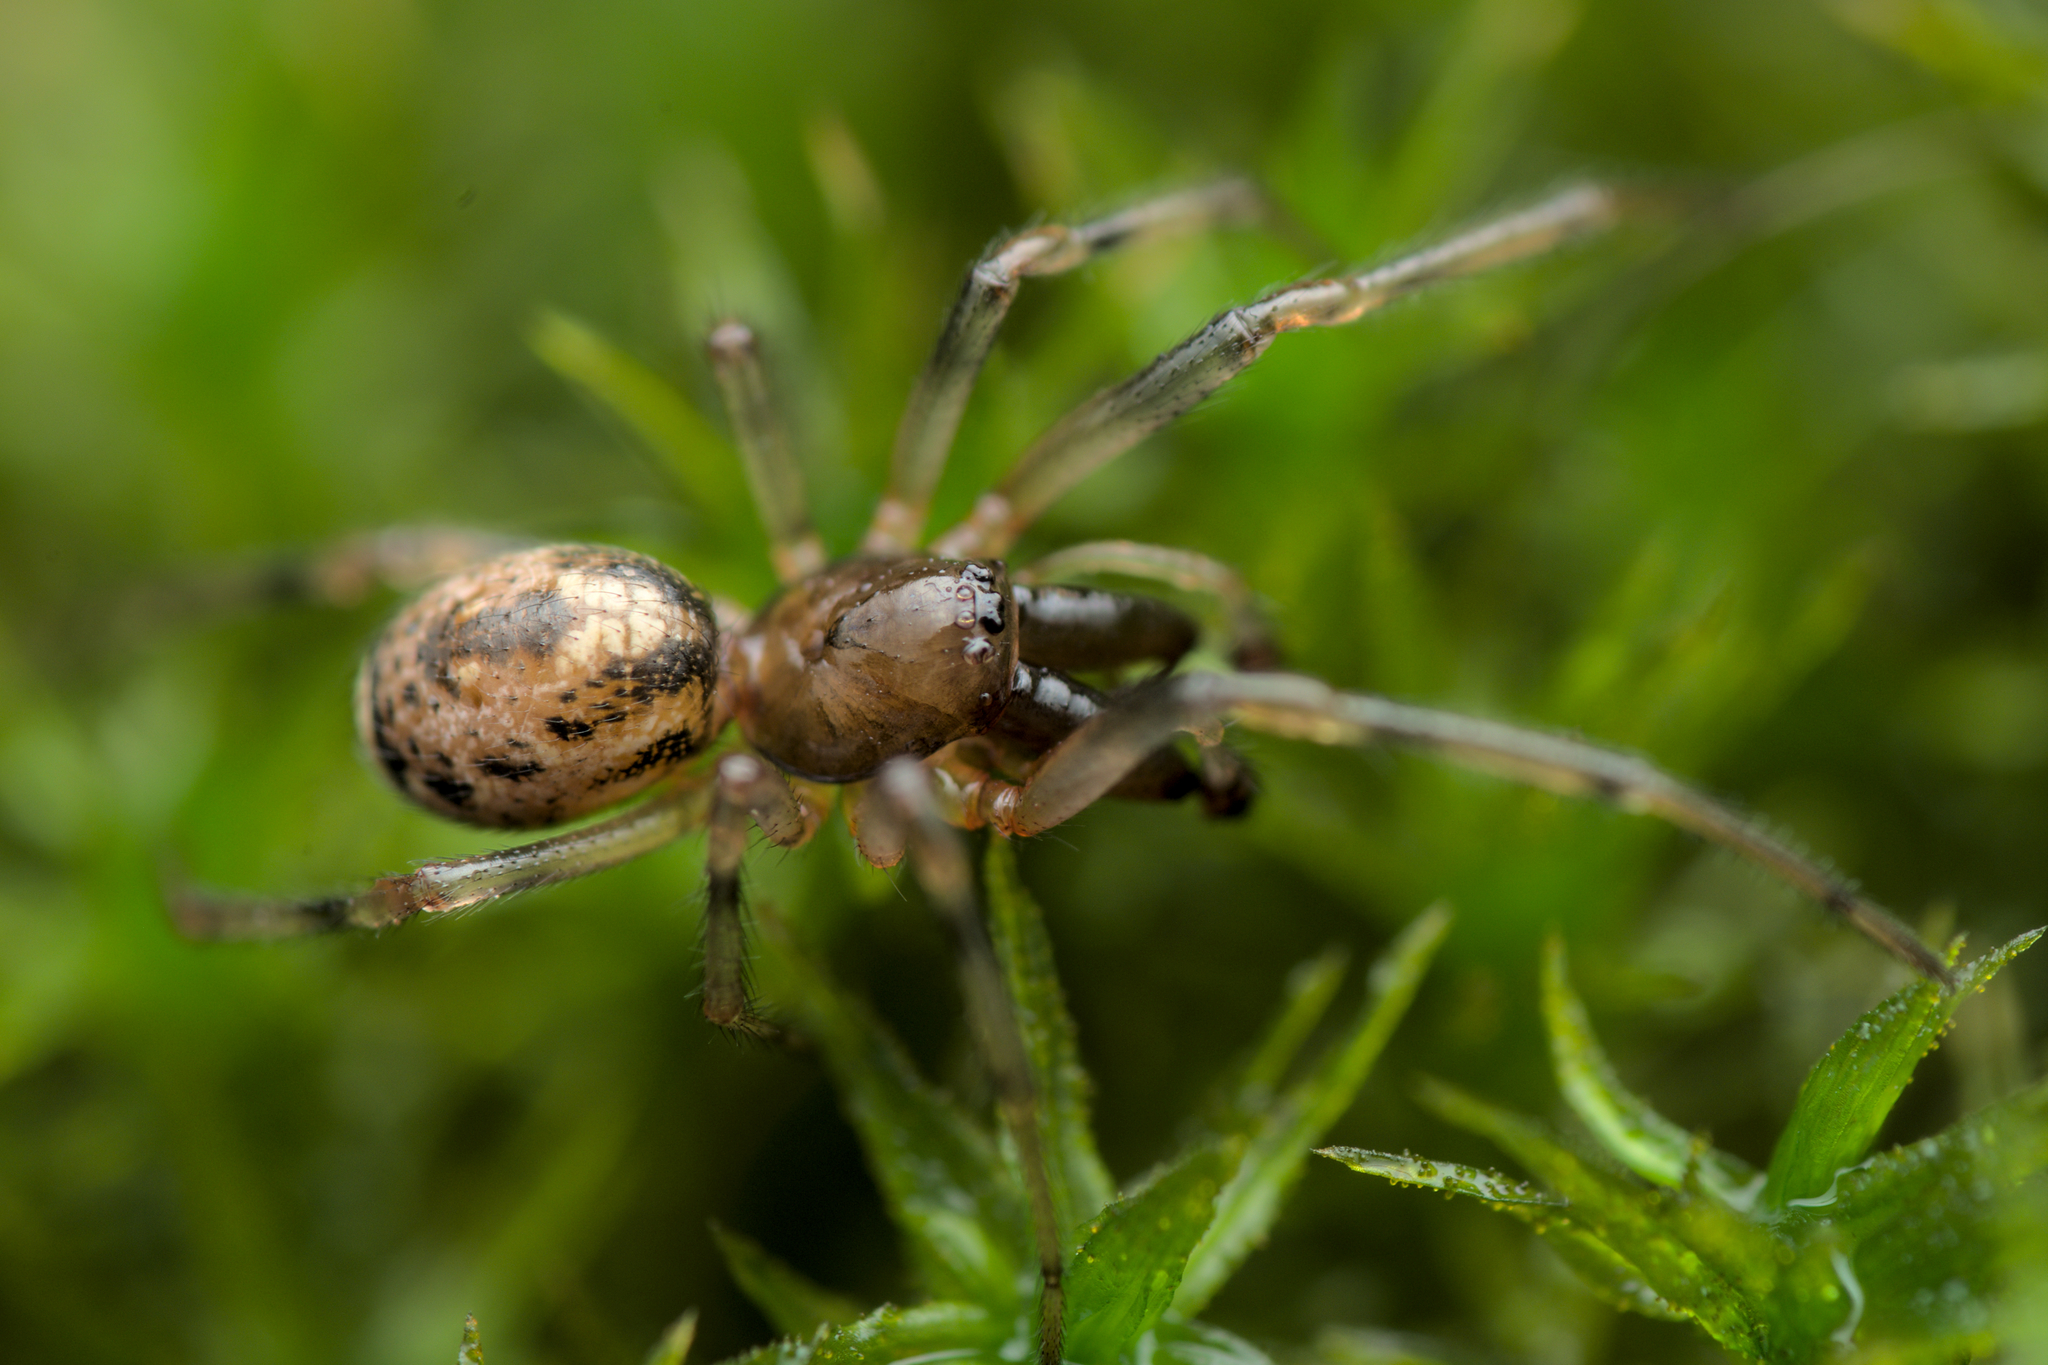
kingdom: Animalia
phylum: Arthropoda
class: Arachnida
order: Araneae
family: Theridiidae
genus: Enoplognatha
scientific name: Enoplognatha mandibularis
